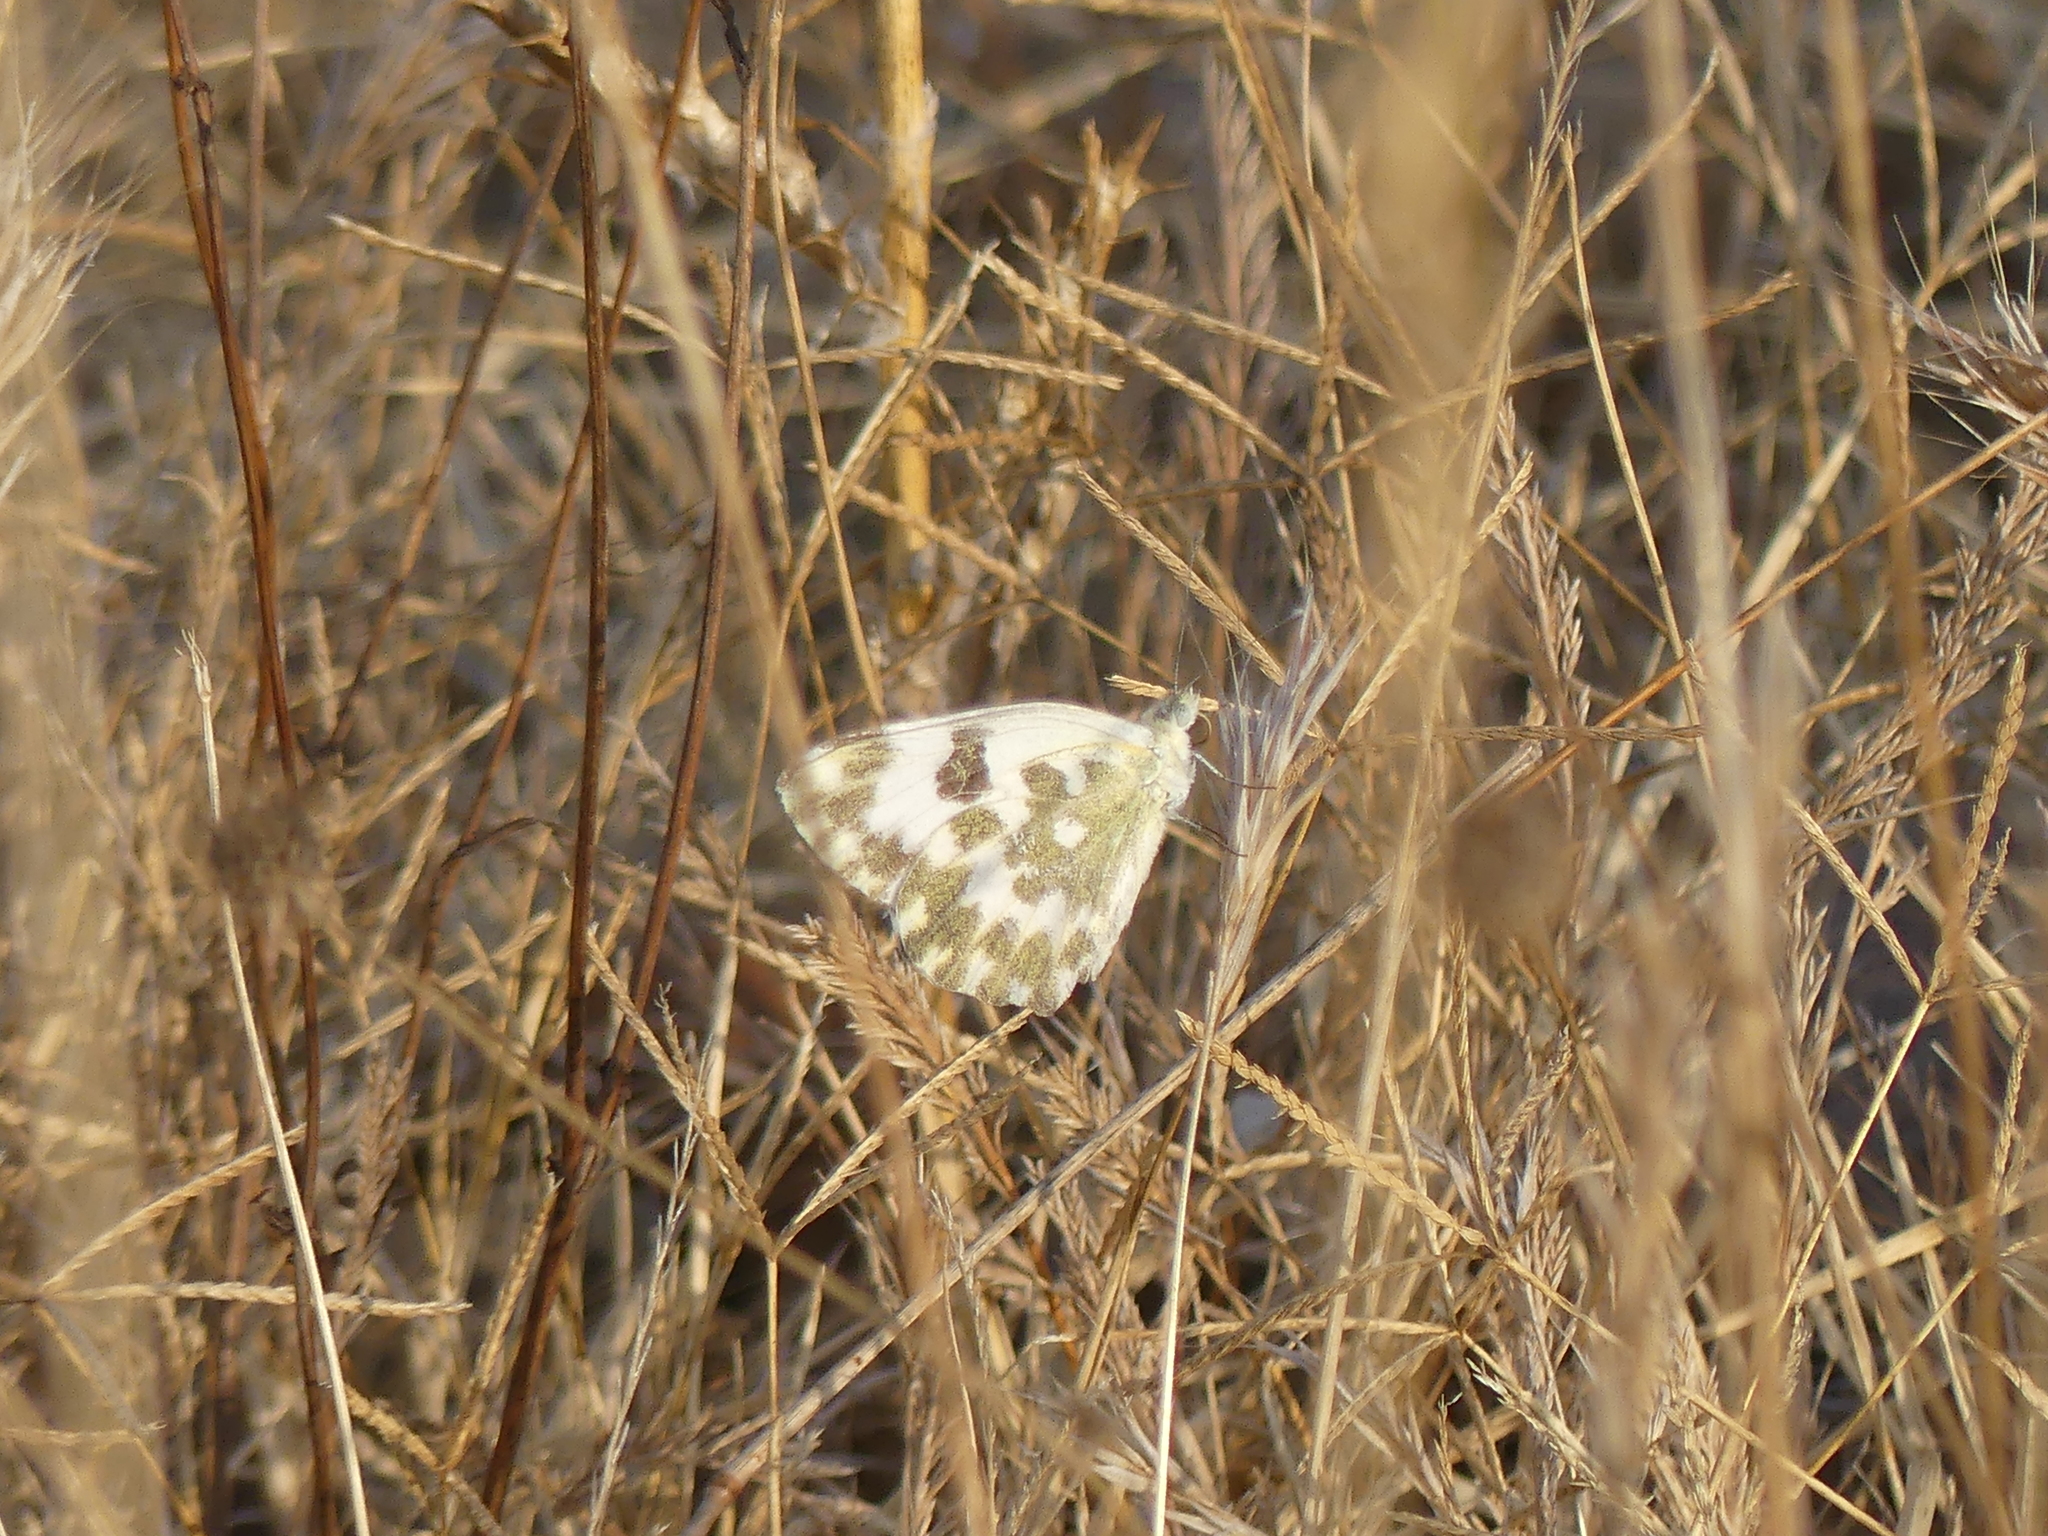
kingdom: Animalia
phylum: Arthropoda
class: Insecta
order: Lepidoptera
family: Pieridae
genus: Pontia
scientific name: Pontia daplidice
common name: Bath white
